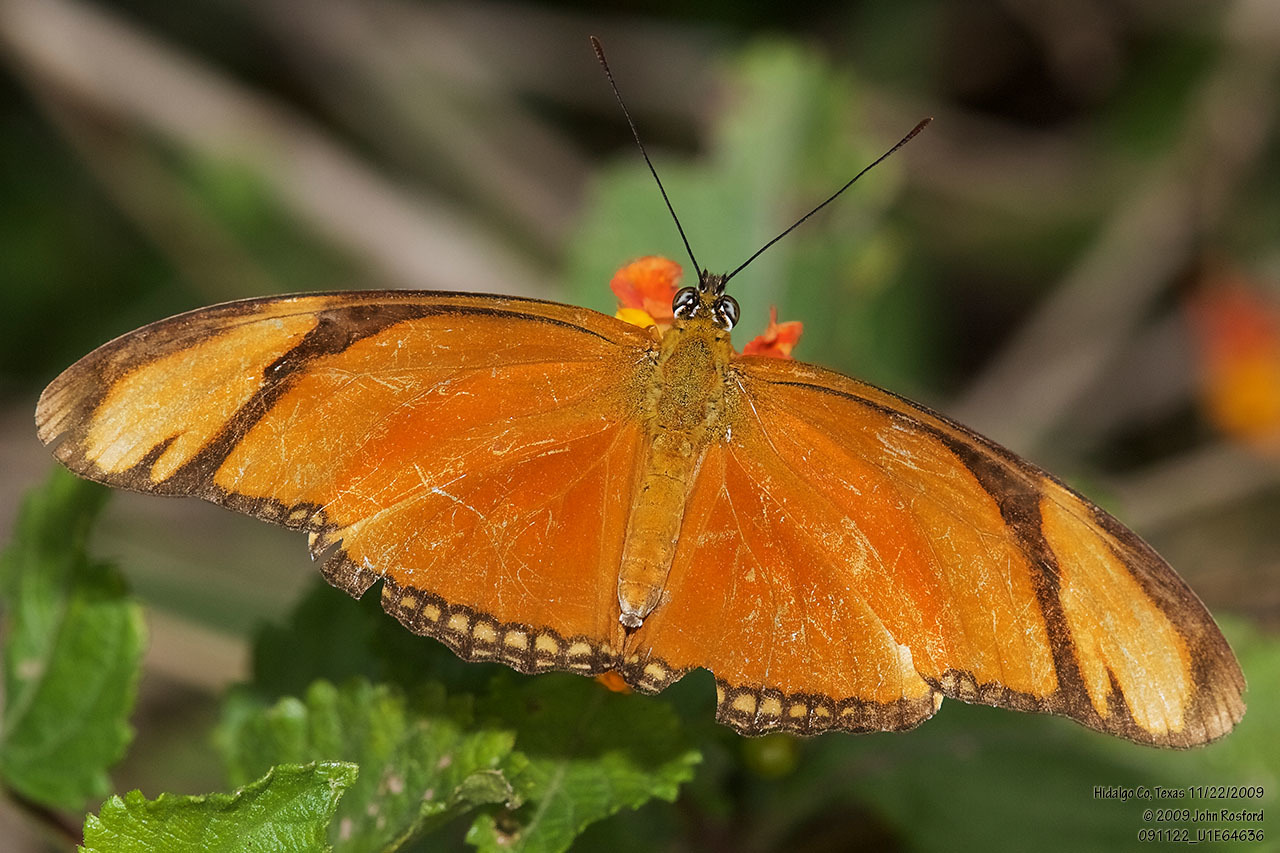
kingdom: Animalia
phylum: Arthropoda
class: Insecta
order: Lepidoptera
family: Nymphalidae
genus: Dryas
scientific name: Dryas iulia
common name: Flambeau
